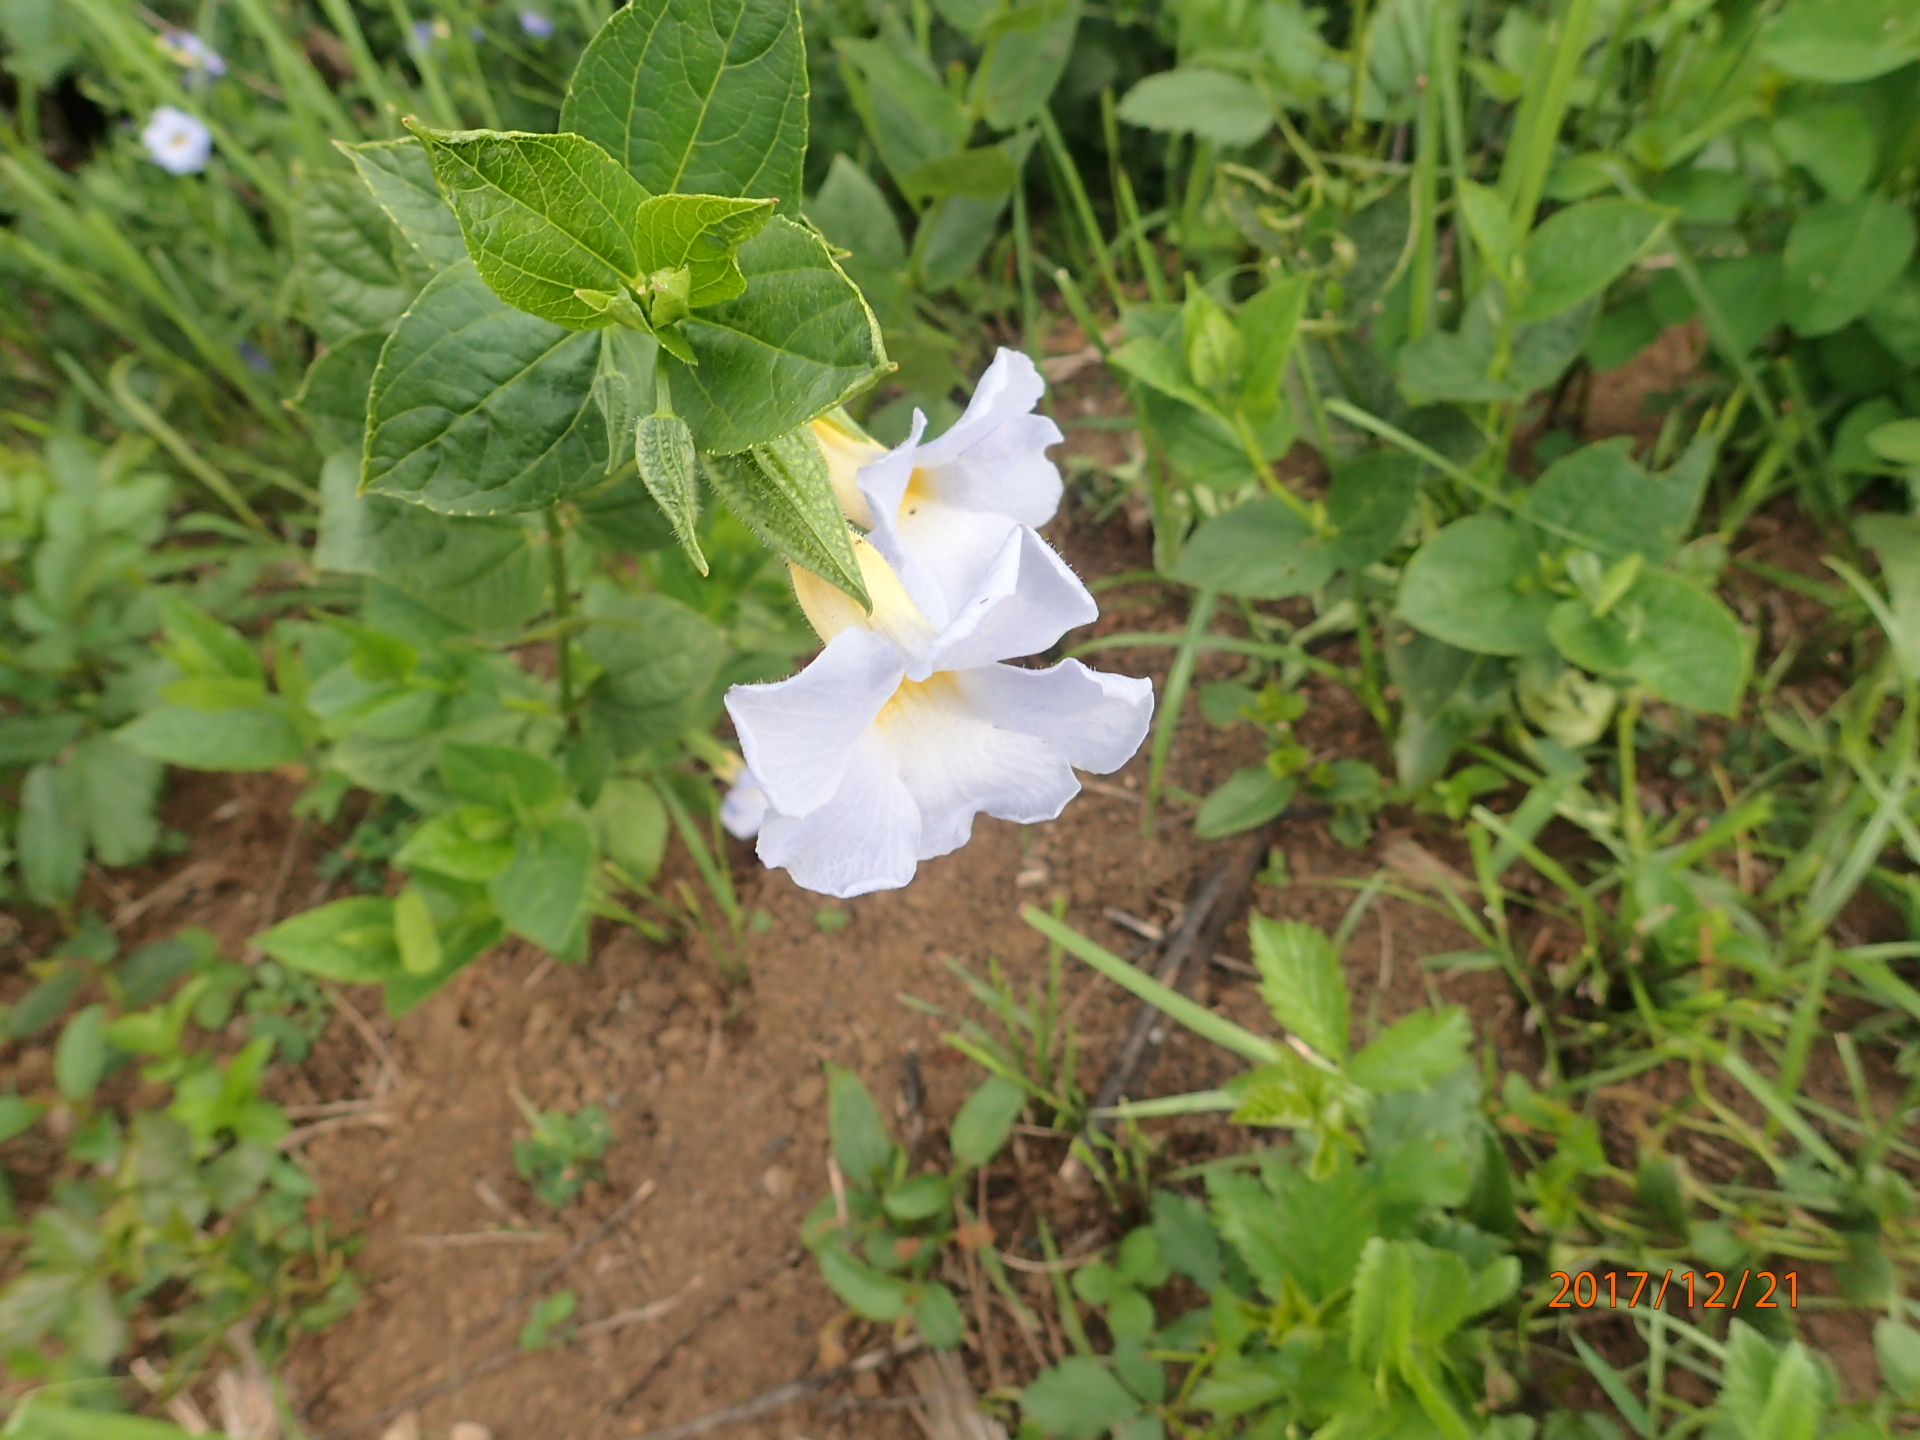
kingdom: Plantae
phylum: Tracheophyta
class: Magnoliopsida
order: Lamiales
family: Acanthaceae
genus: Thunbergia
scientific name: Thunbergia natalensis
